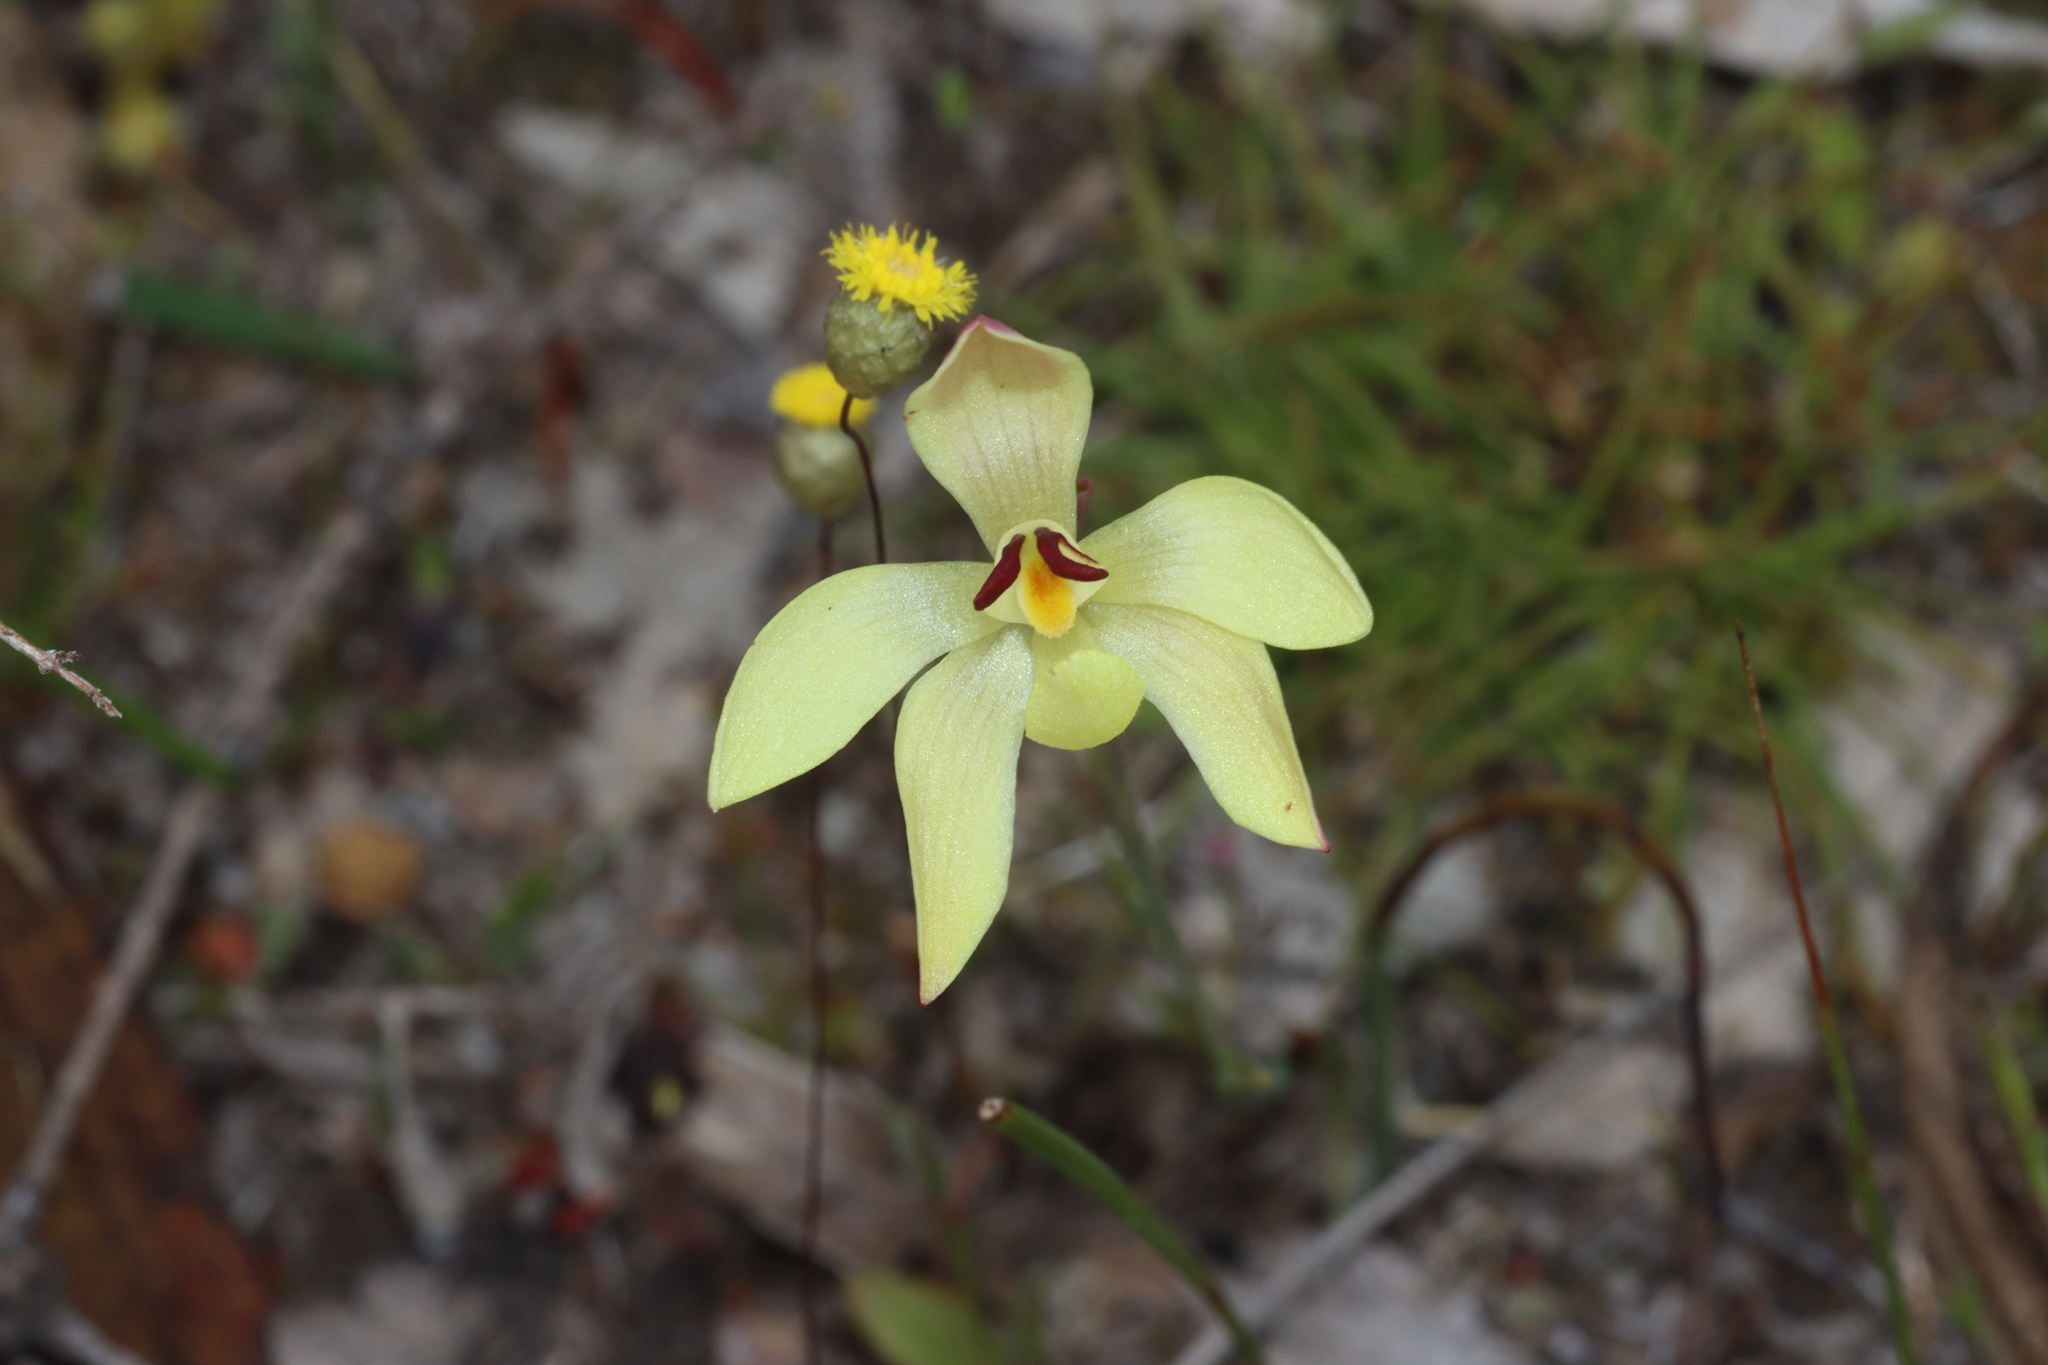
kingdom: Plantae
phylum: Tracheophyta
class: Liliopsida
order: Asparagales
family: Orchidaceae
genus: Thelymitra
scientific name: Thelymitra antennifera
